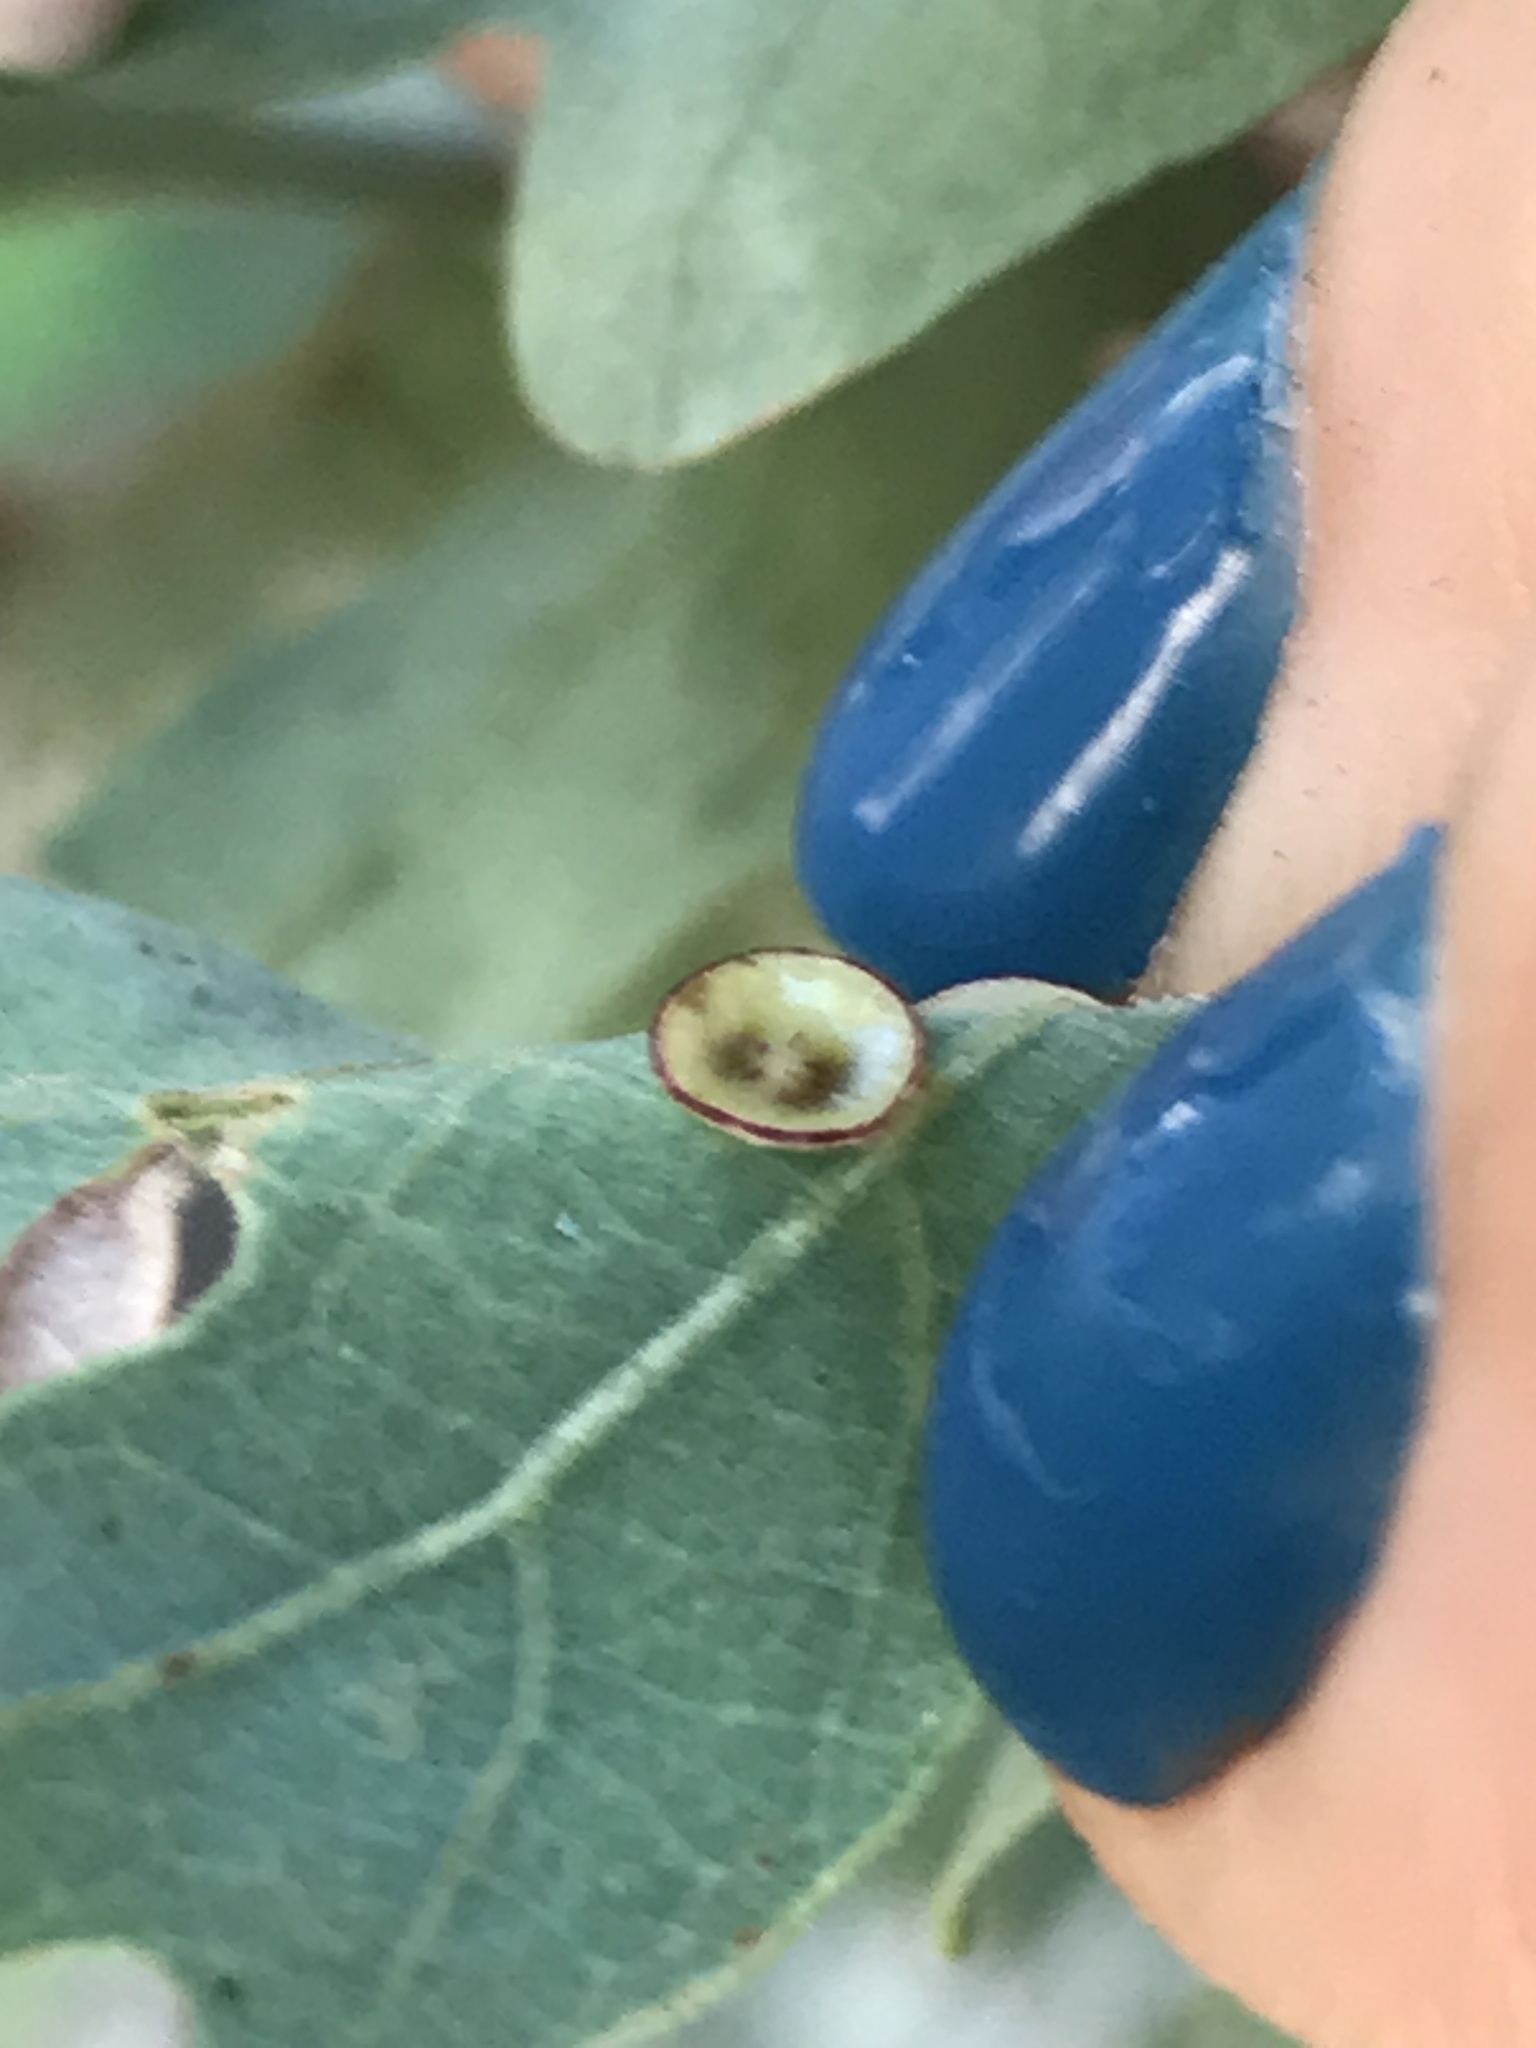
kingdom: Animalia
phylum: Arthropoda
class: Insecta
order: Hymenoptera
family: Cynipidae
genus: Andricus
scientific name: Andricus
